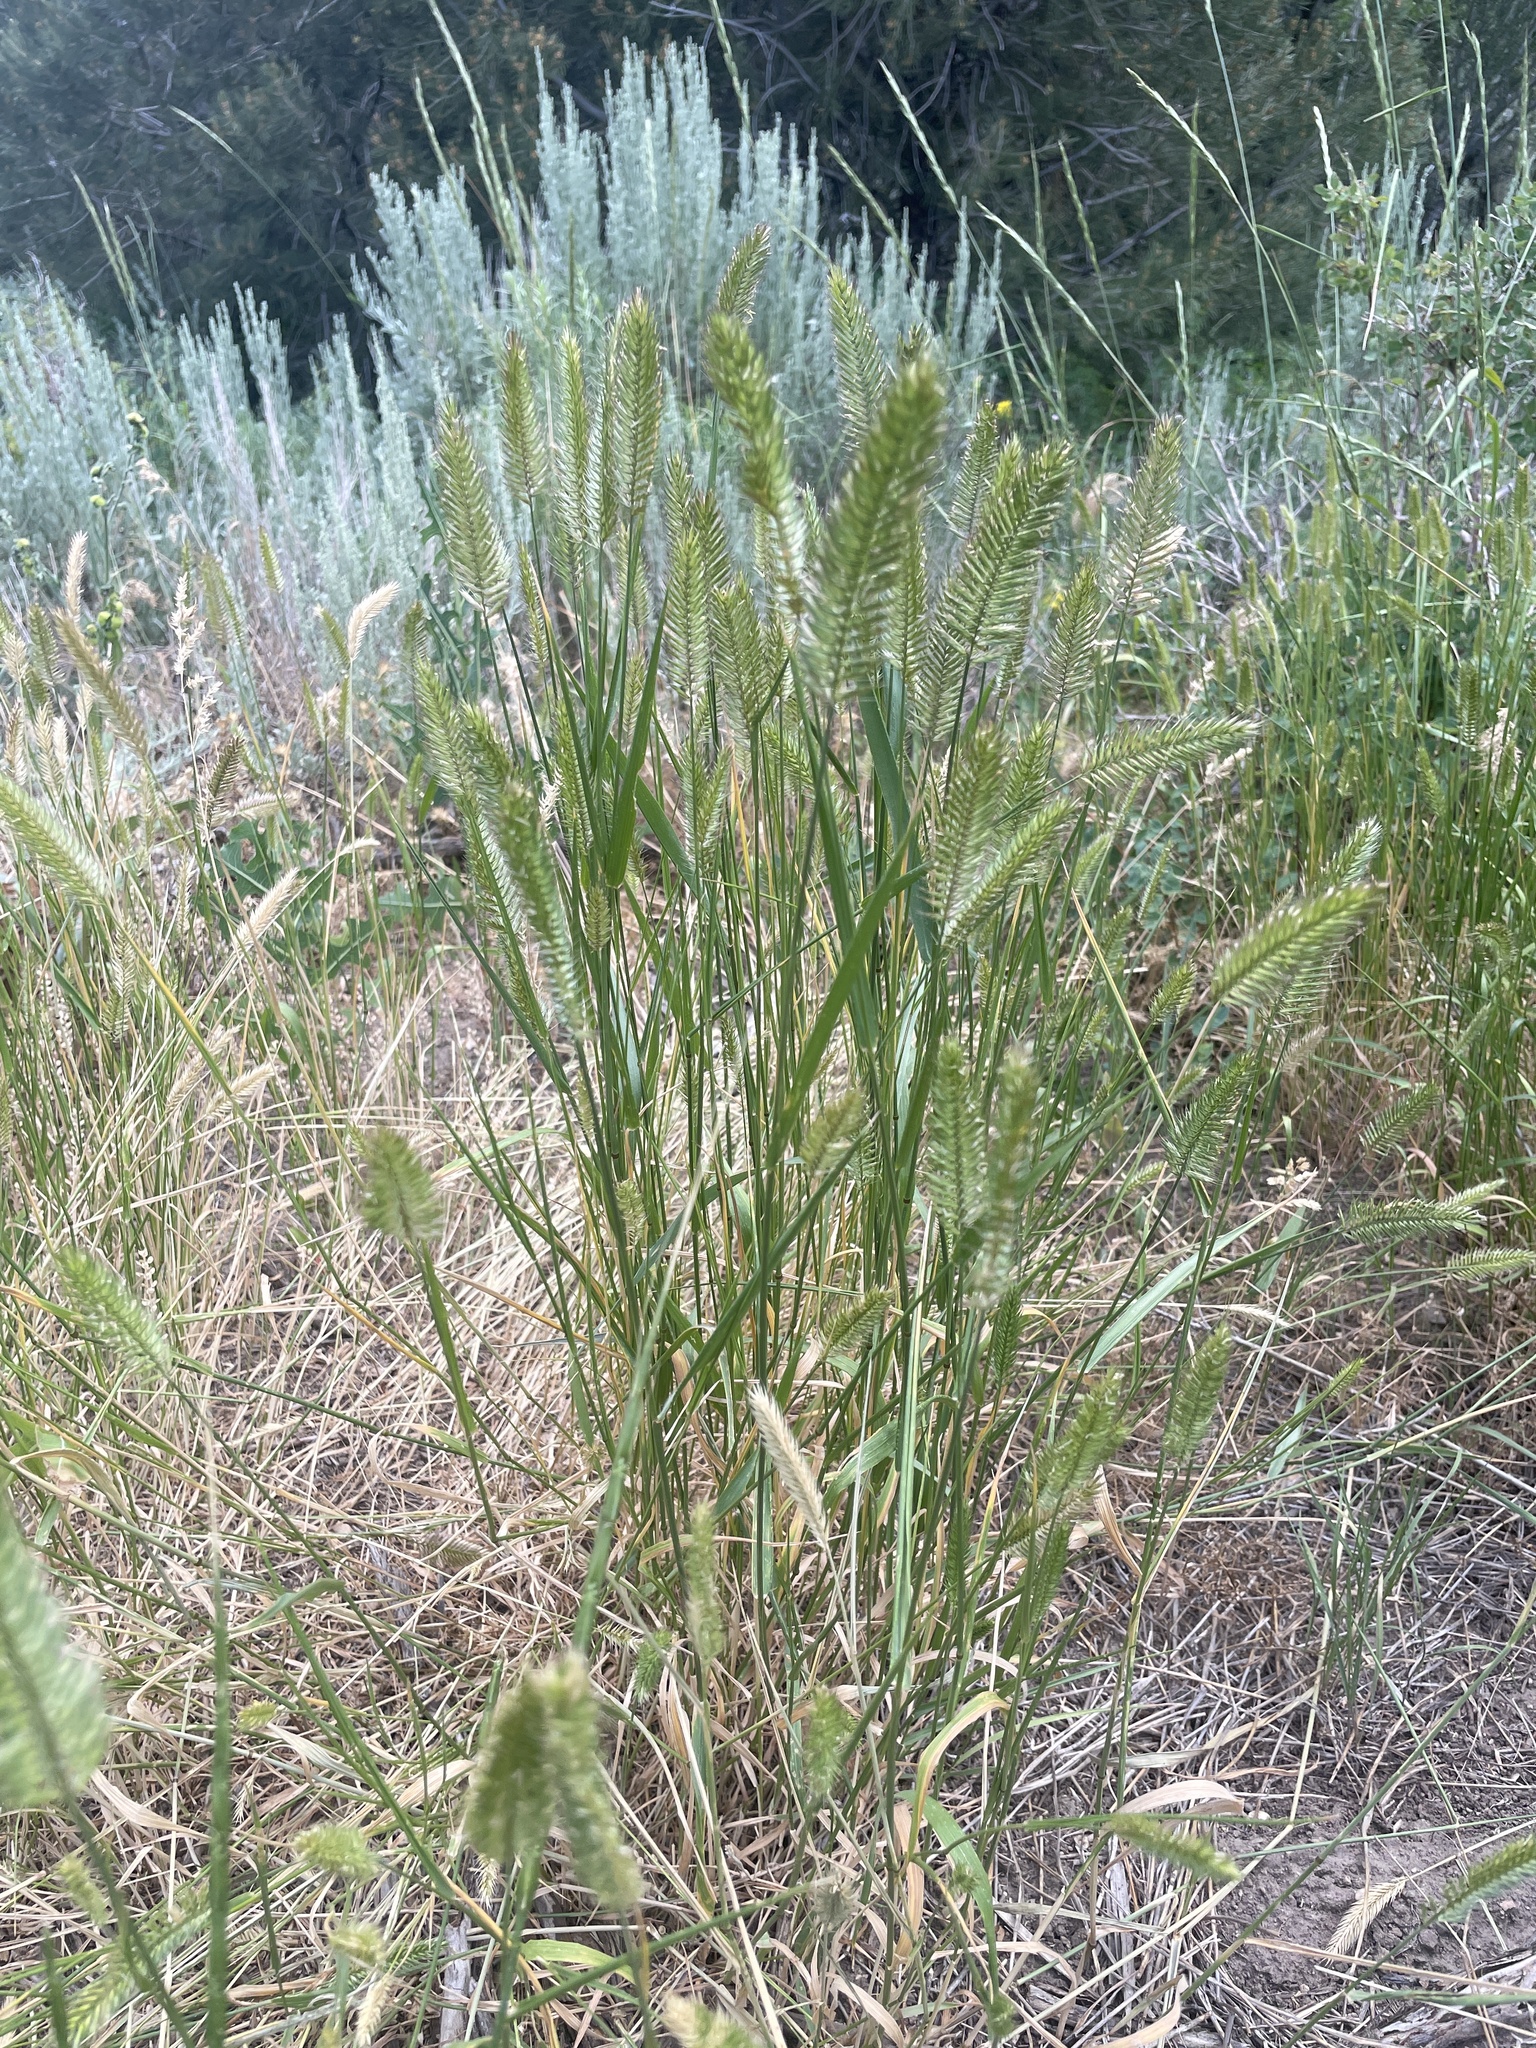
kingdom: Plantae
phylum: Tracheophyta
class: Liliopsida
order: Poales
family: Poaceae
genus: Agropyron
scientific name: Agropyron cristatum
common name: Crested wheatgrass
